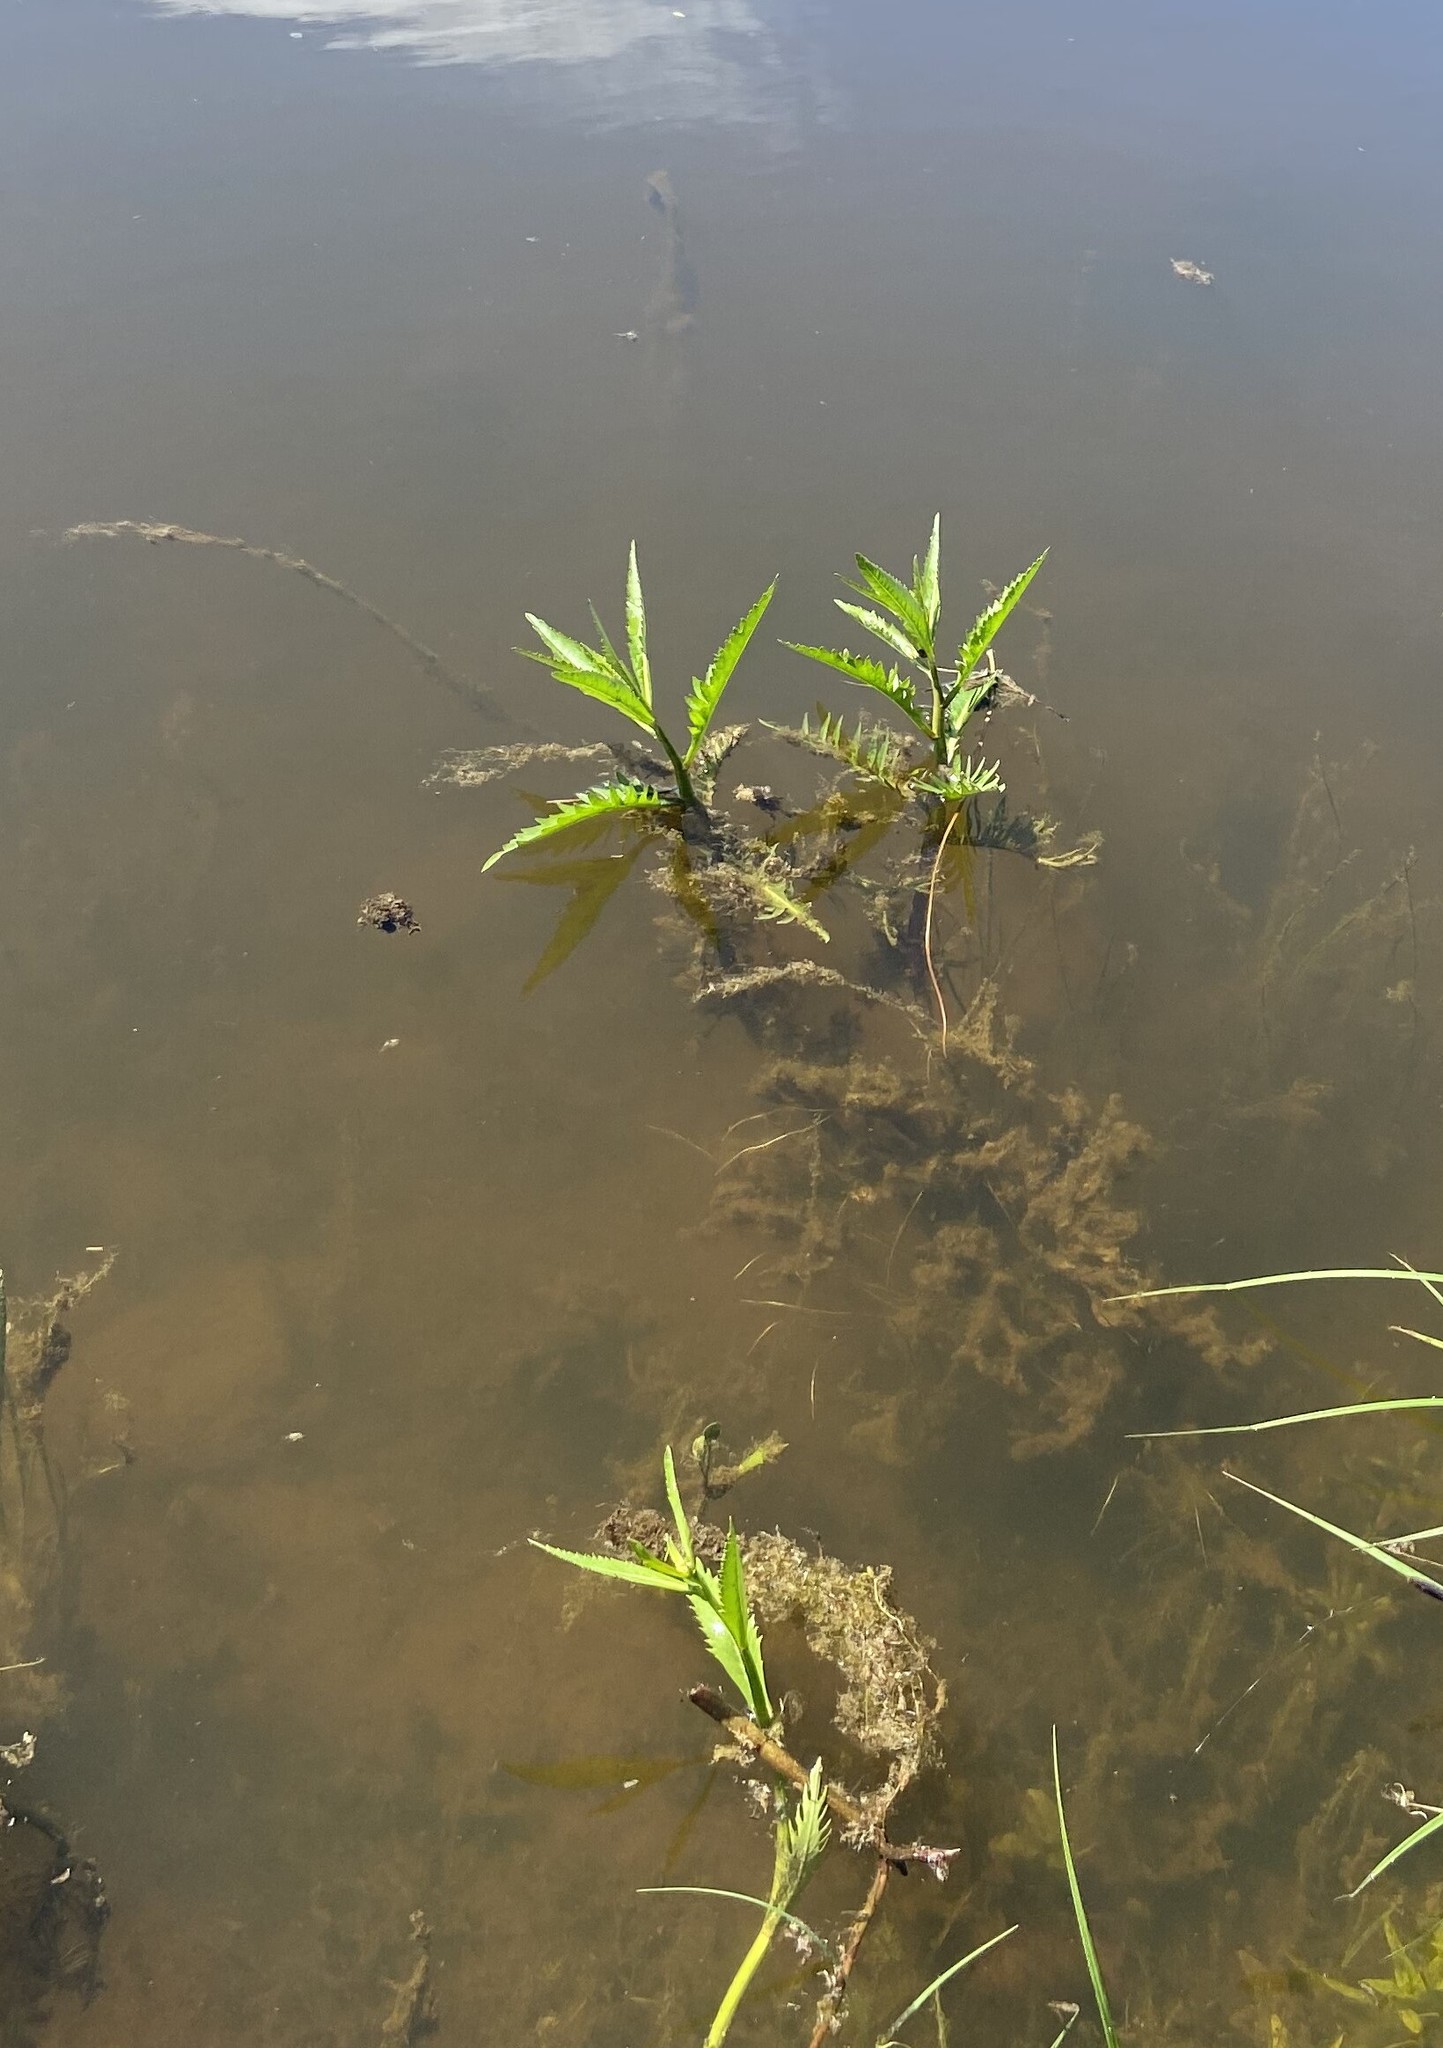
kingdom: Plantae
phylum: Tracheophyta
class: Magnoliopsida
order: Brassicales
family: Brassicaceae
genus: Rorippa
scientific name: Rorippa amphibia
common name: Great yellow-cress
